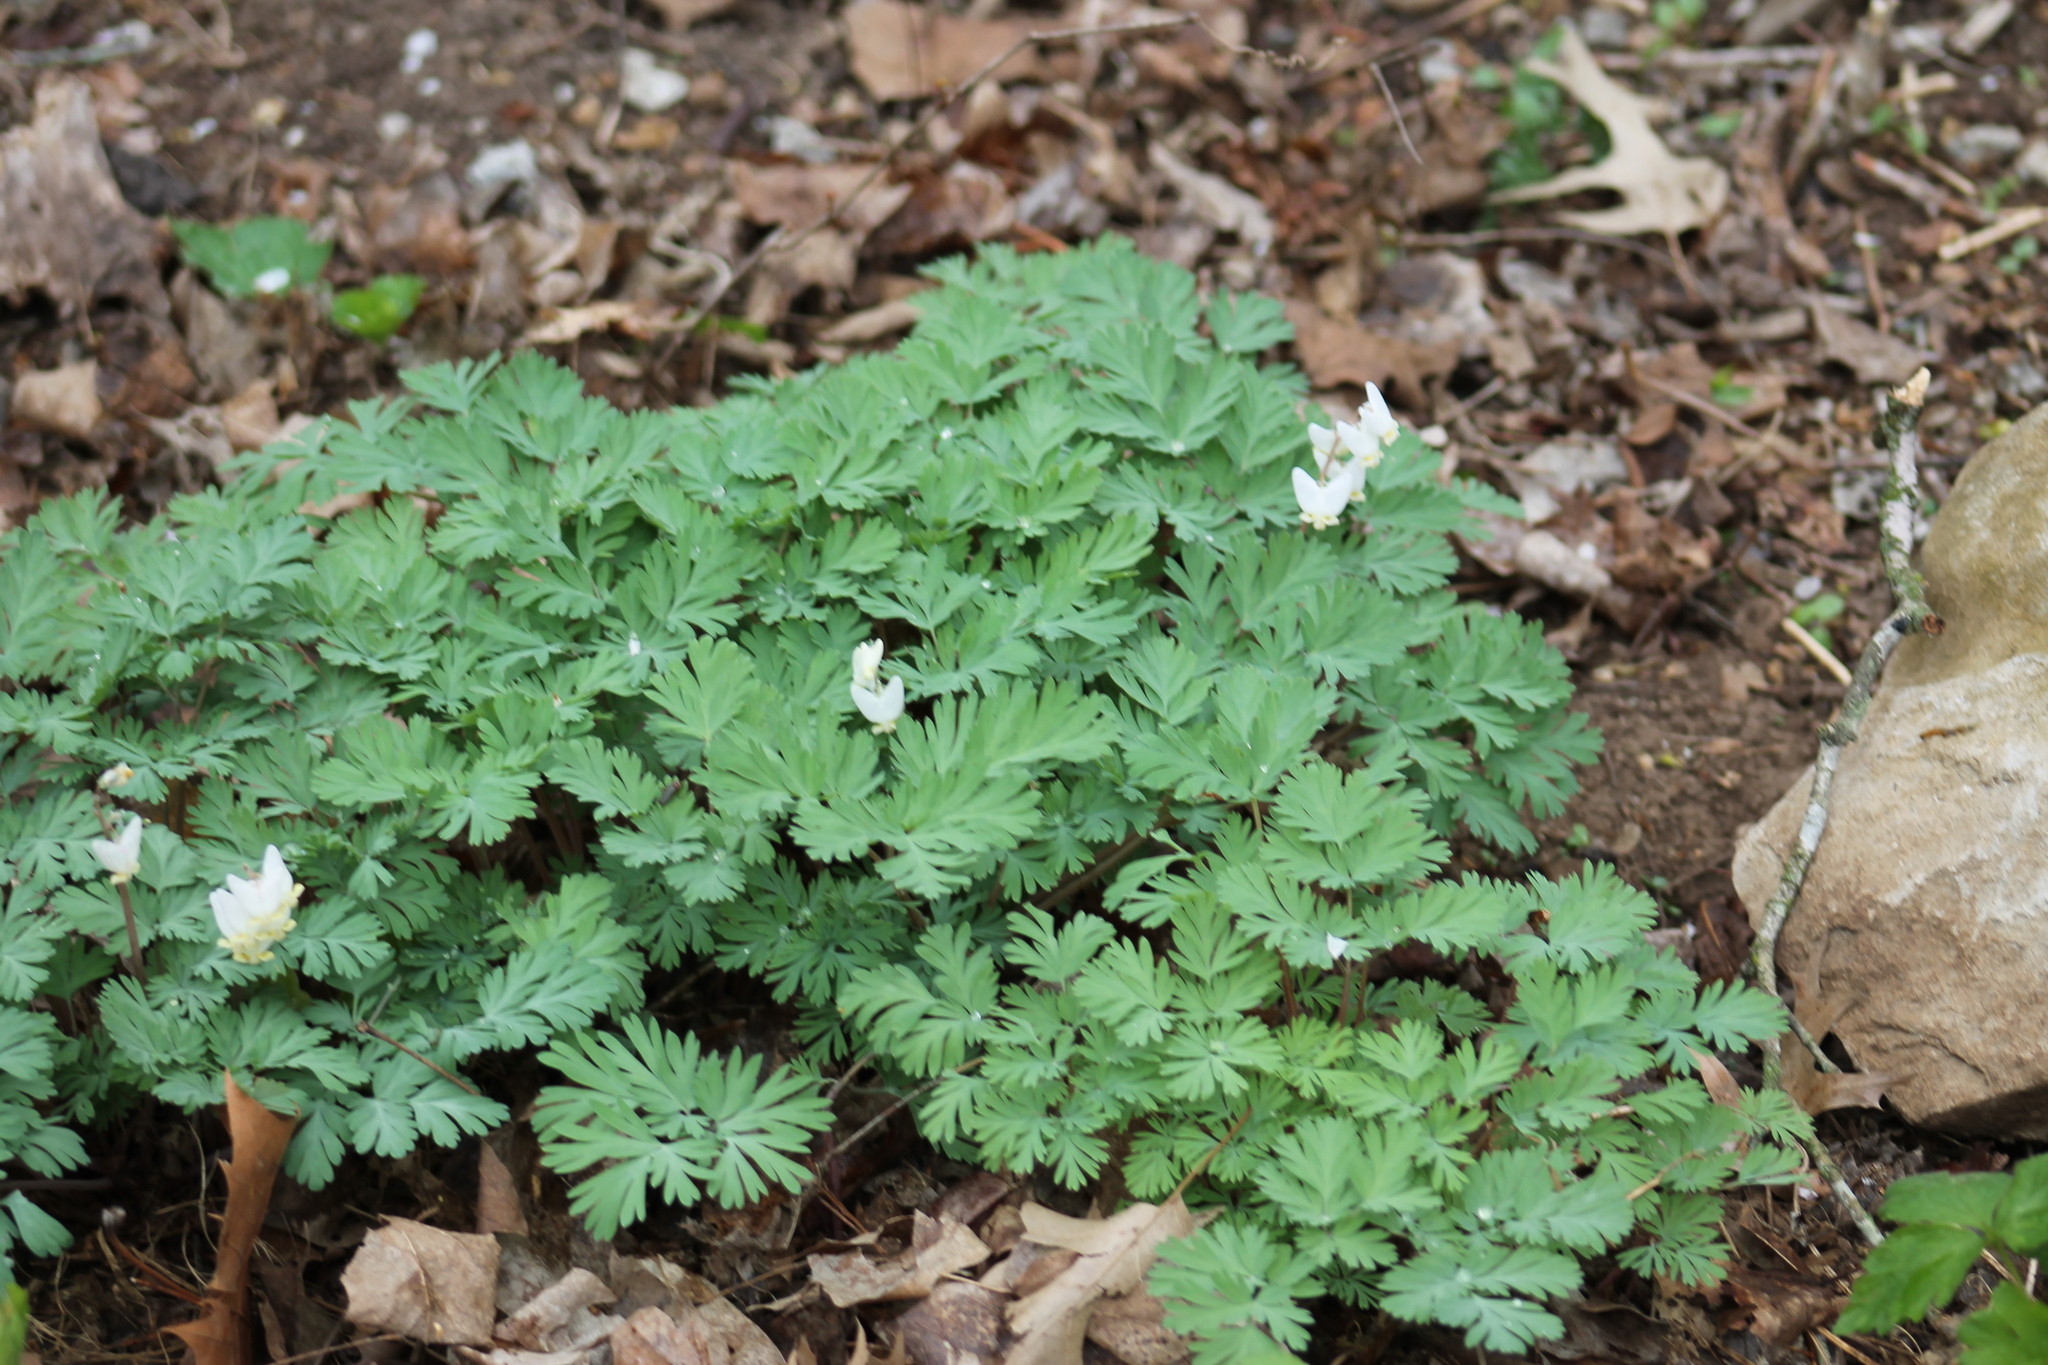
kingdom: Plantae
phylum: Tracheophyta
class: Magnoliopsida
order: Ranunculales
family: Papaveraceae
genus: Dicentra
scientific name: Dicentra cucullaria
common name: Dutchman's breeches
